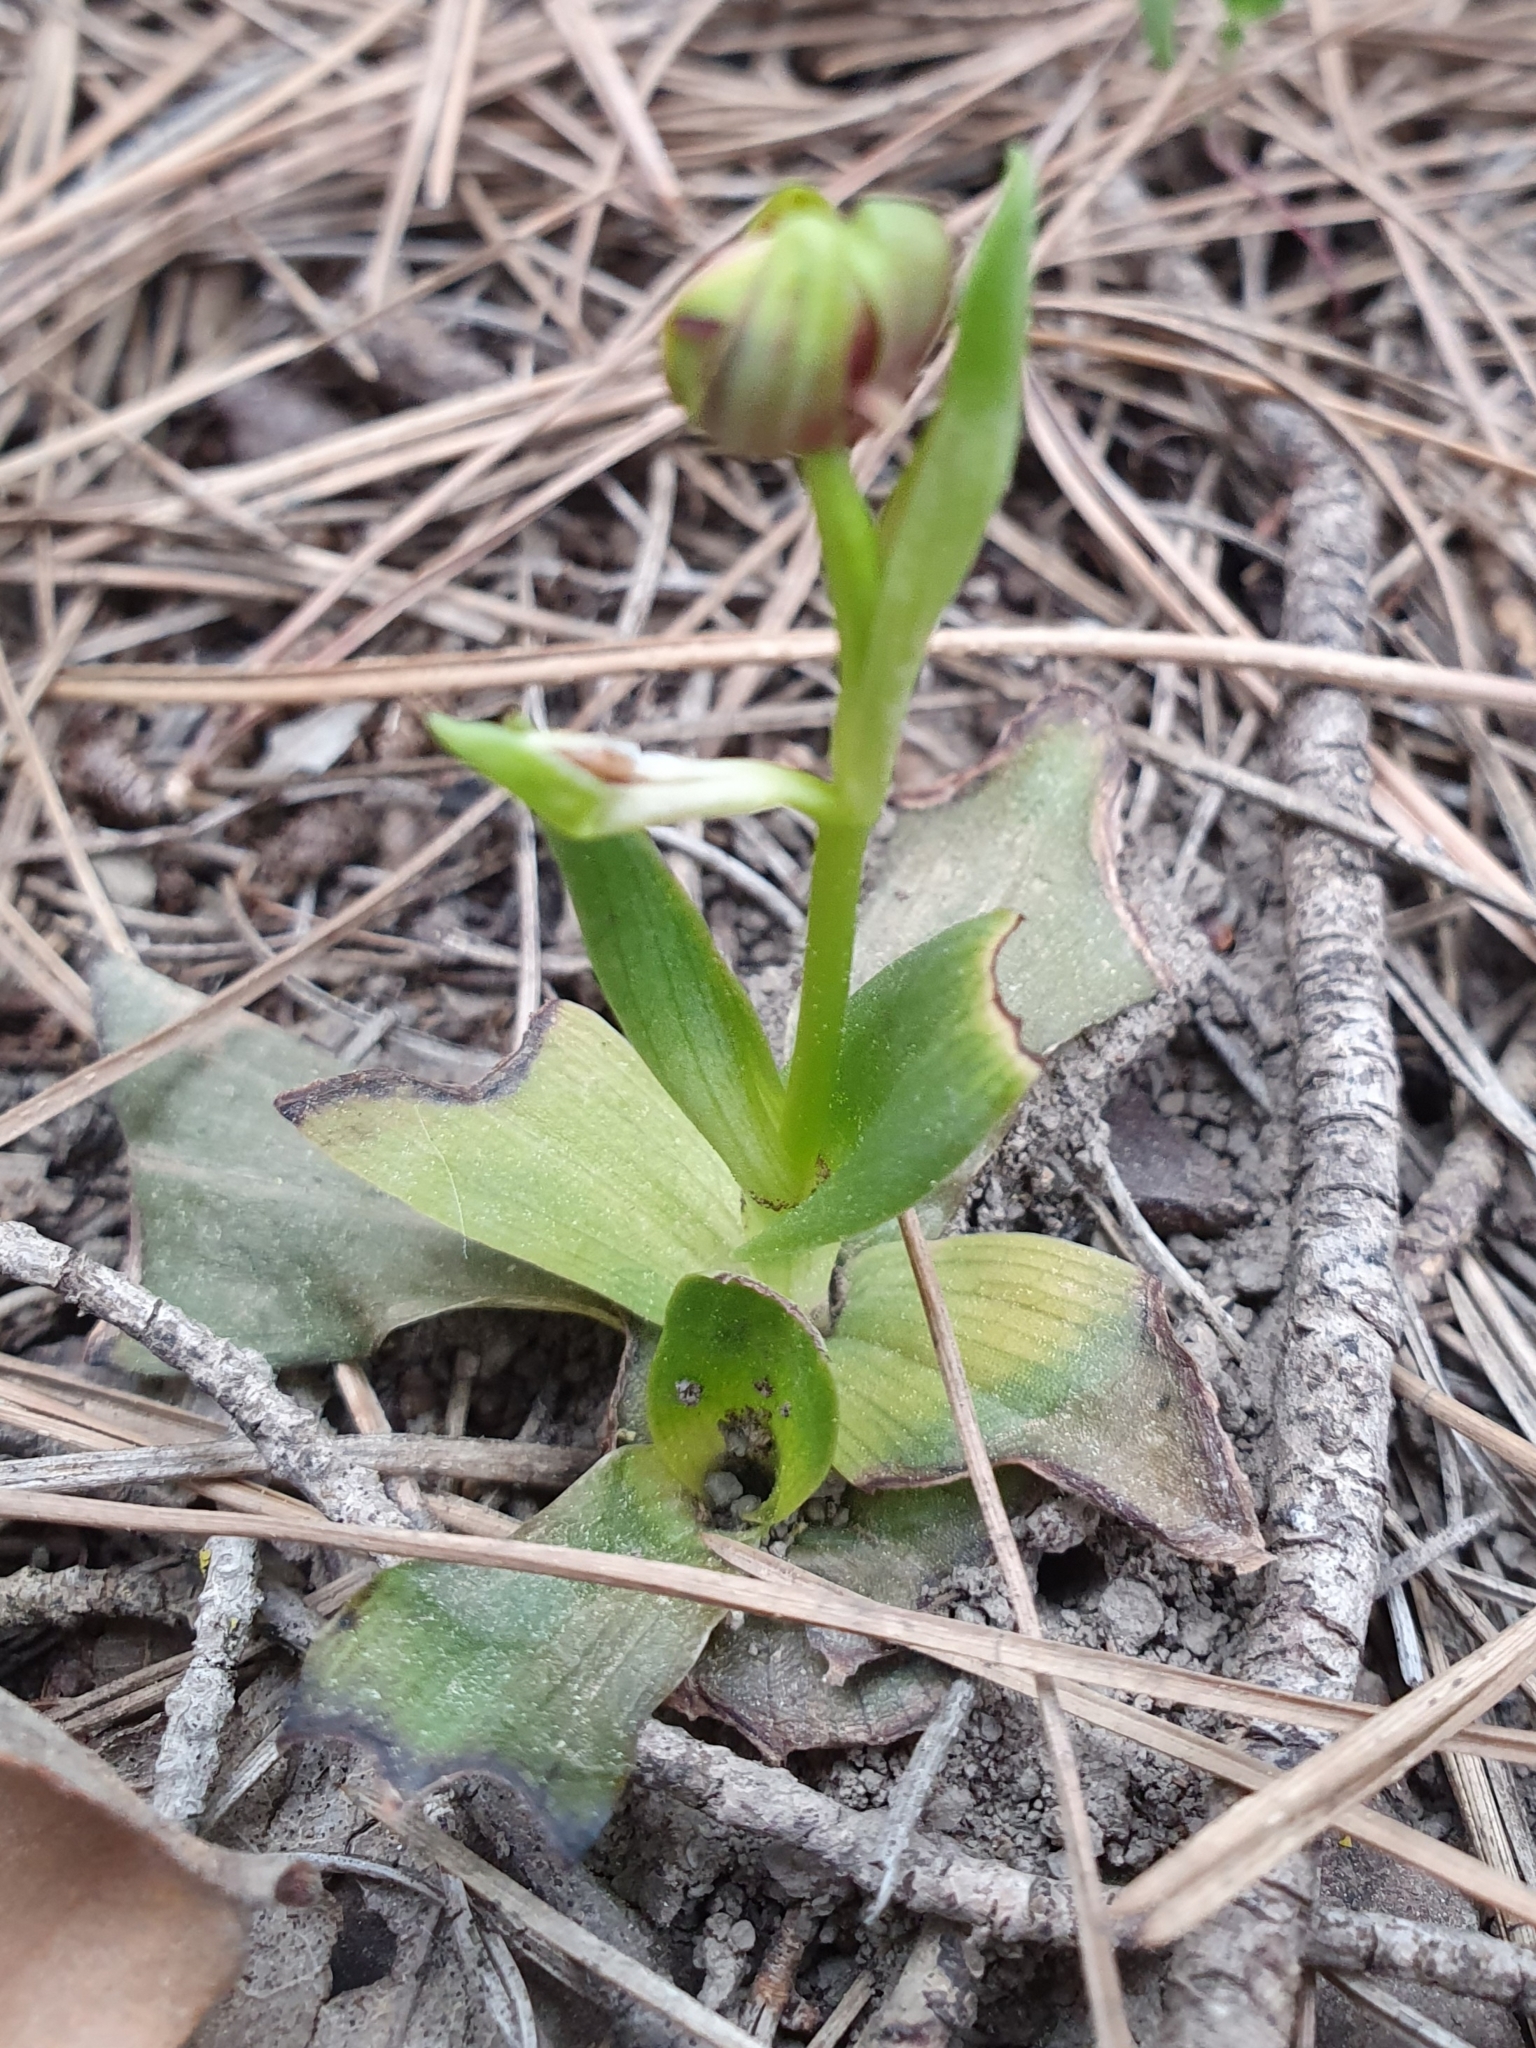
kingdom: Plantae
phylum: Tracheophyta
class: Liliopsida
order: Asparagales
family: Orchidaceae
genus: Ophrys
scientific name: Ophrys speculum
